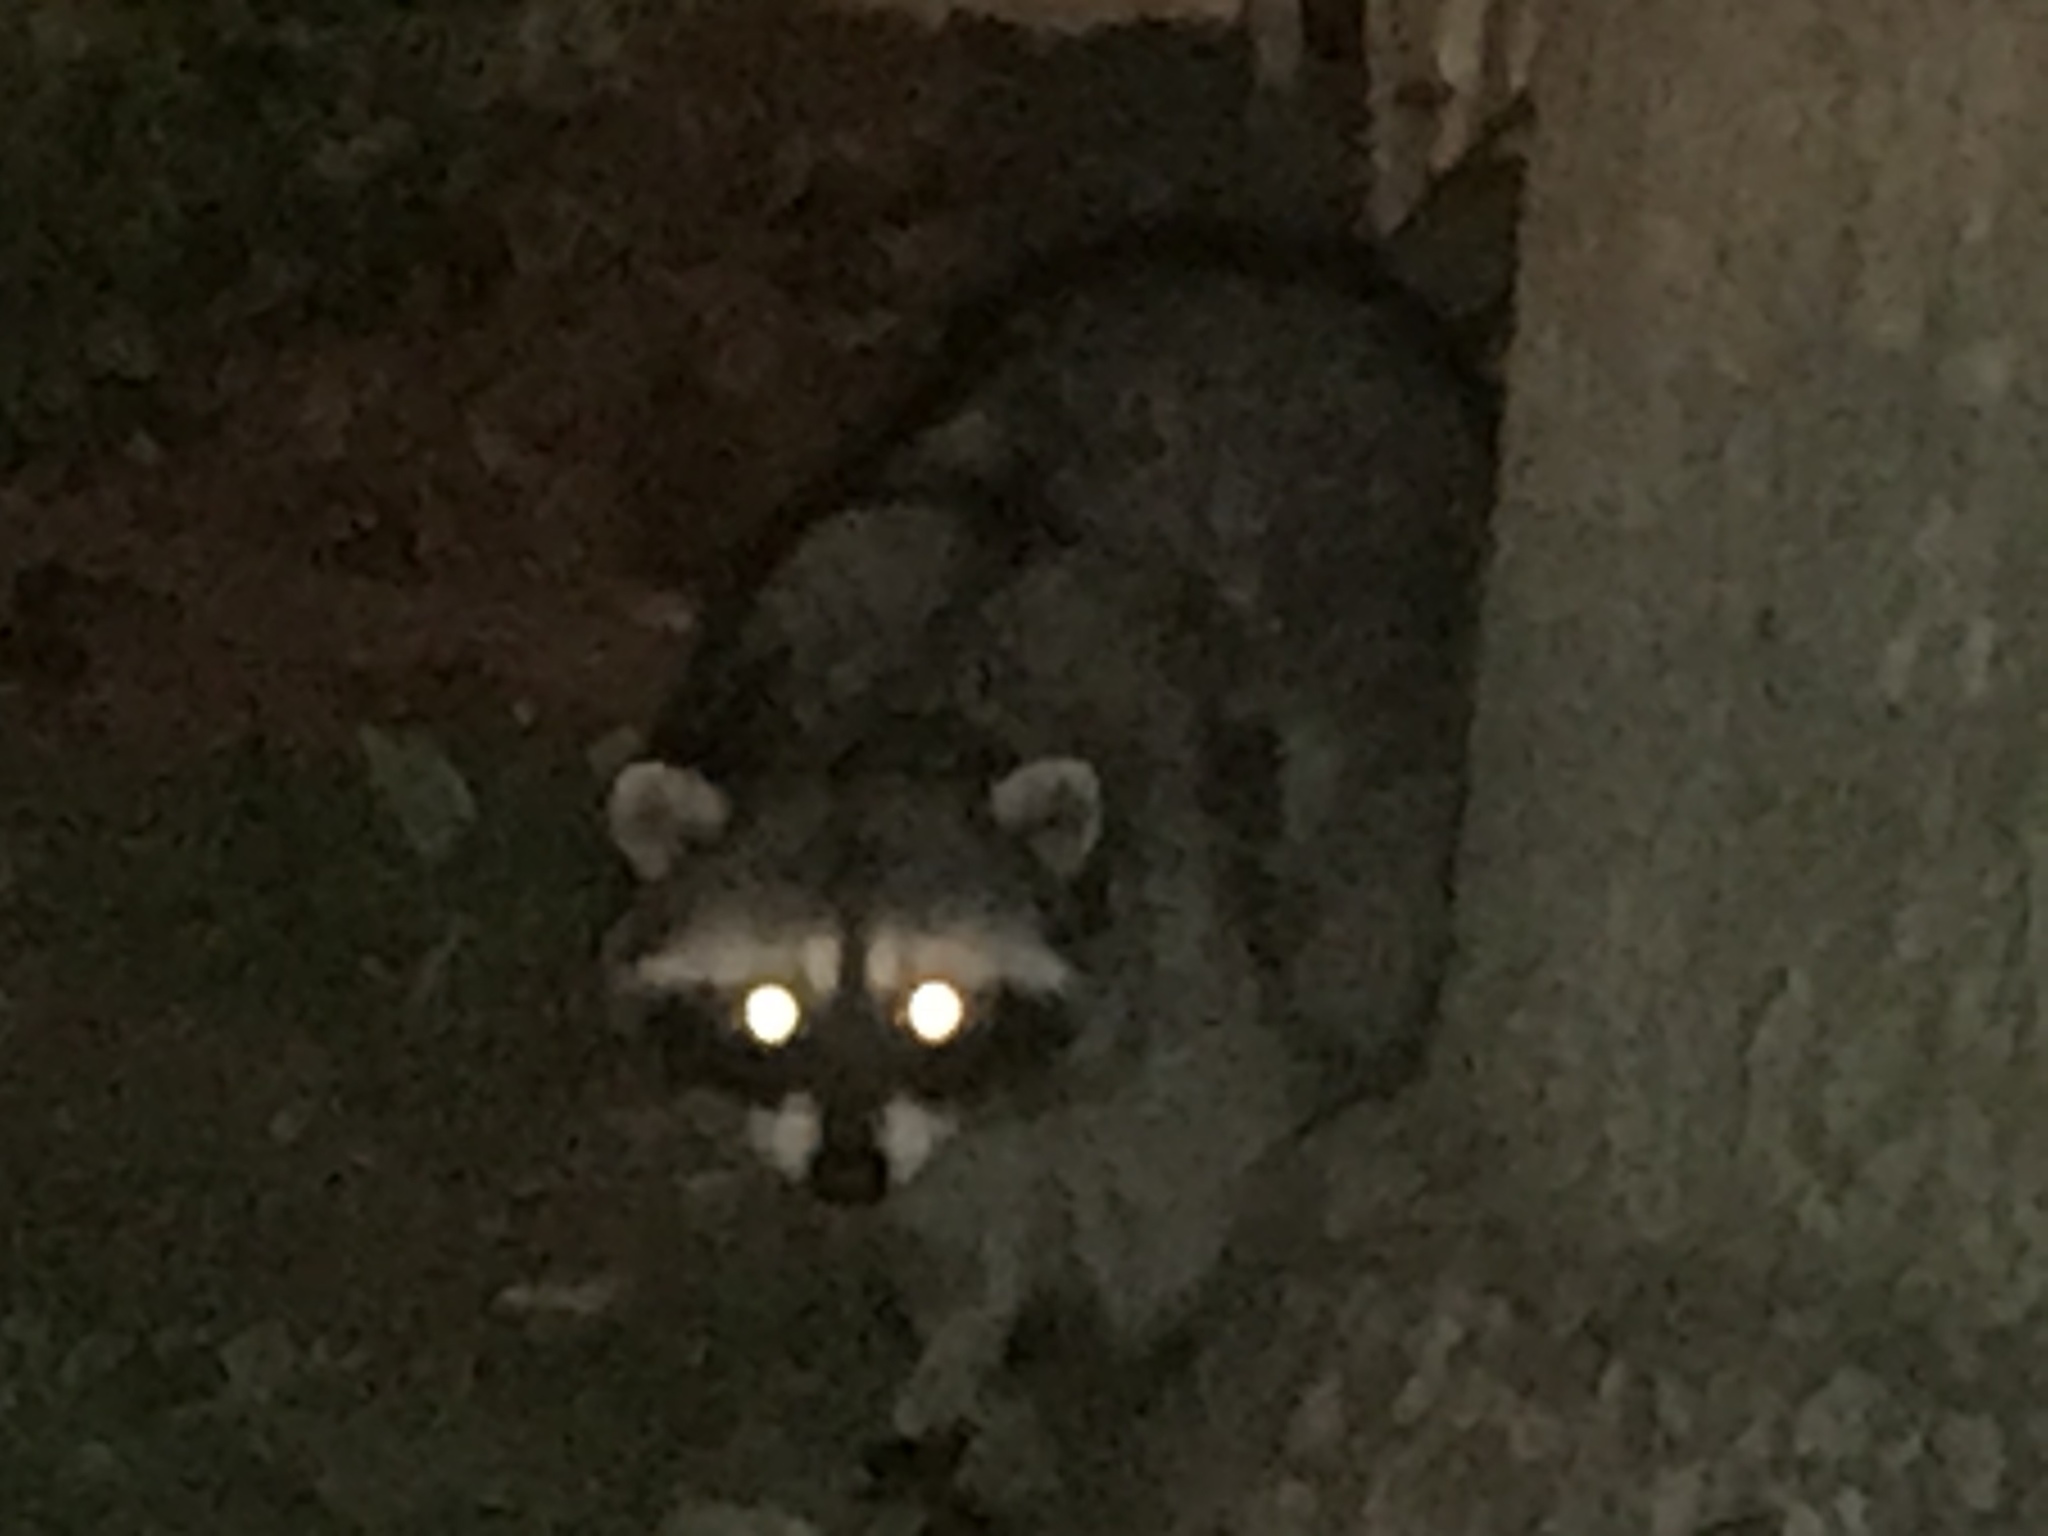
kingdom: Animalia
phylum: Chordata
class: Mammalia
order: Carnivora
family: Procyonidae
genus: Procyon
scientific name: Procyon lotor
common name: Raccoon
